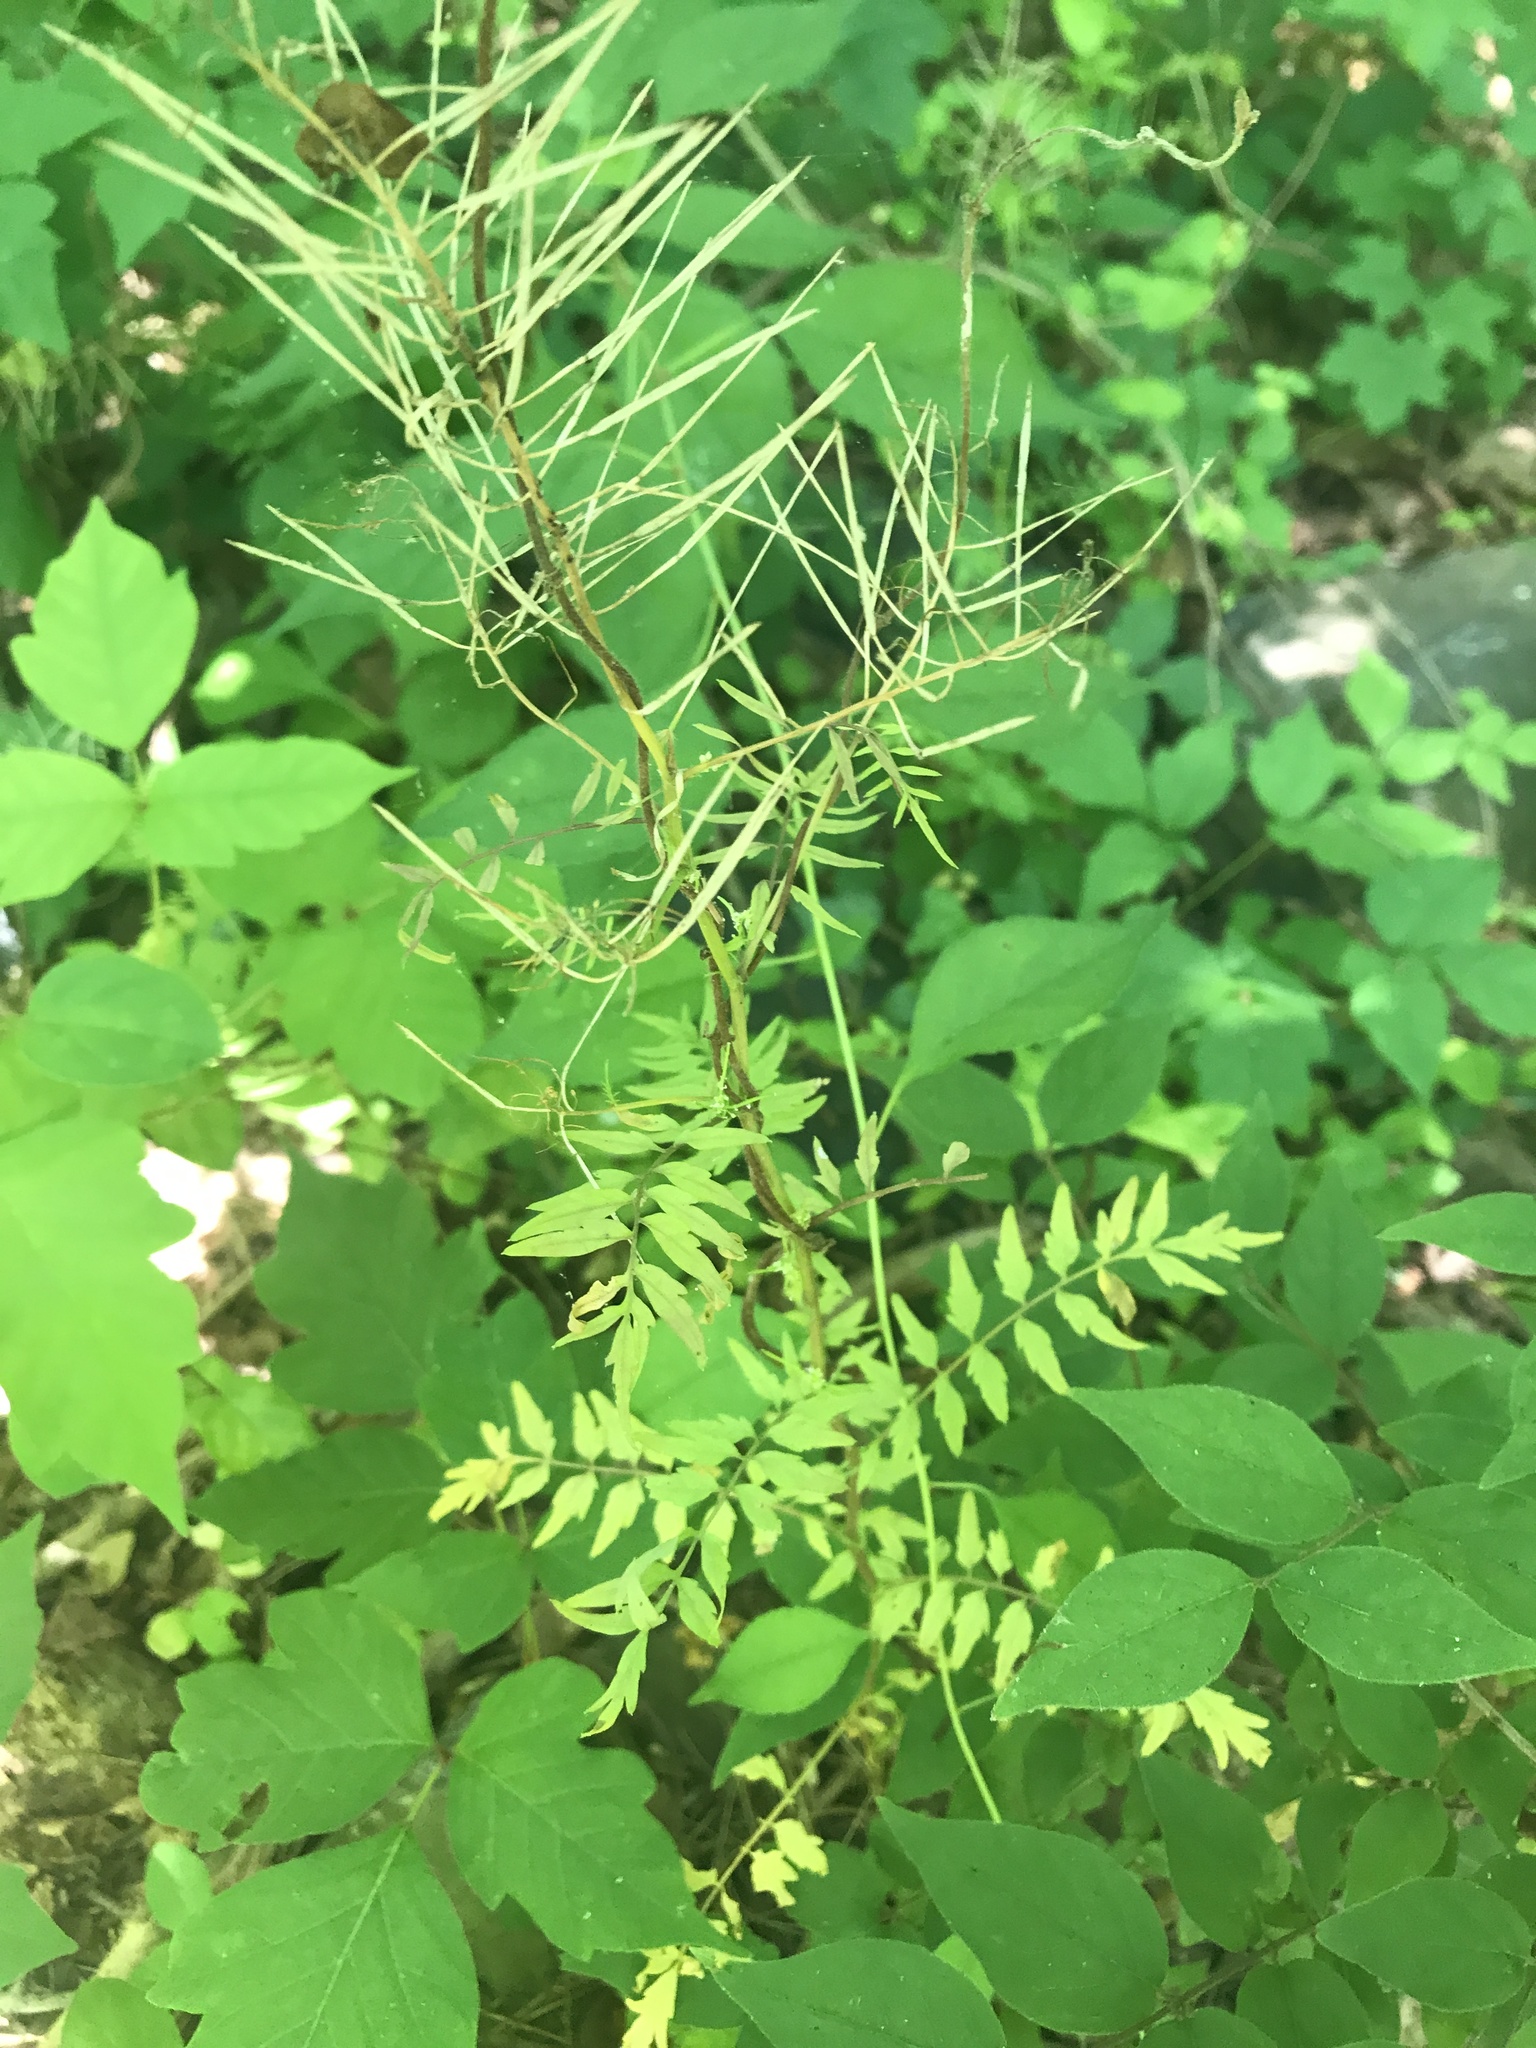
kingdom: Plantae
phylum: Tracheophyta
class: Magnoliopsida
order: Brassicales
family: Brassicaceae
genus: Cardamine
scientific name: Cardamine impatiens
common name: Narrow-leaved bitter-cress
